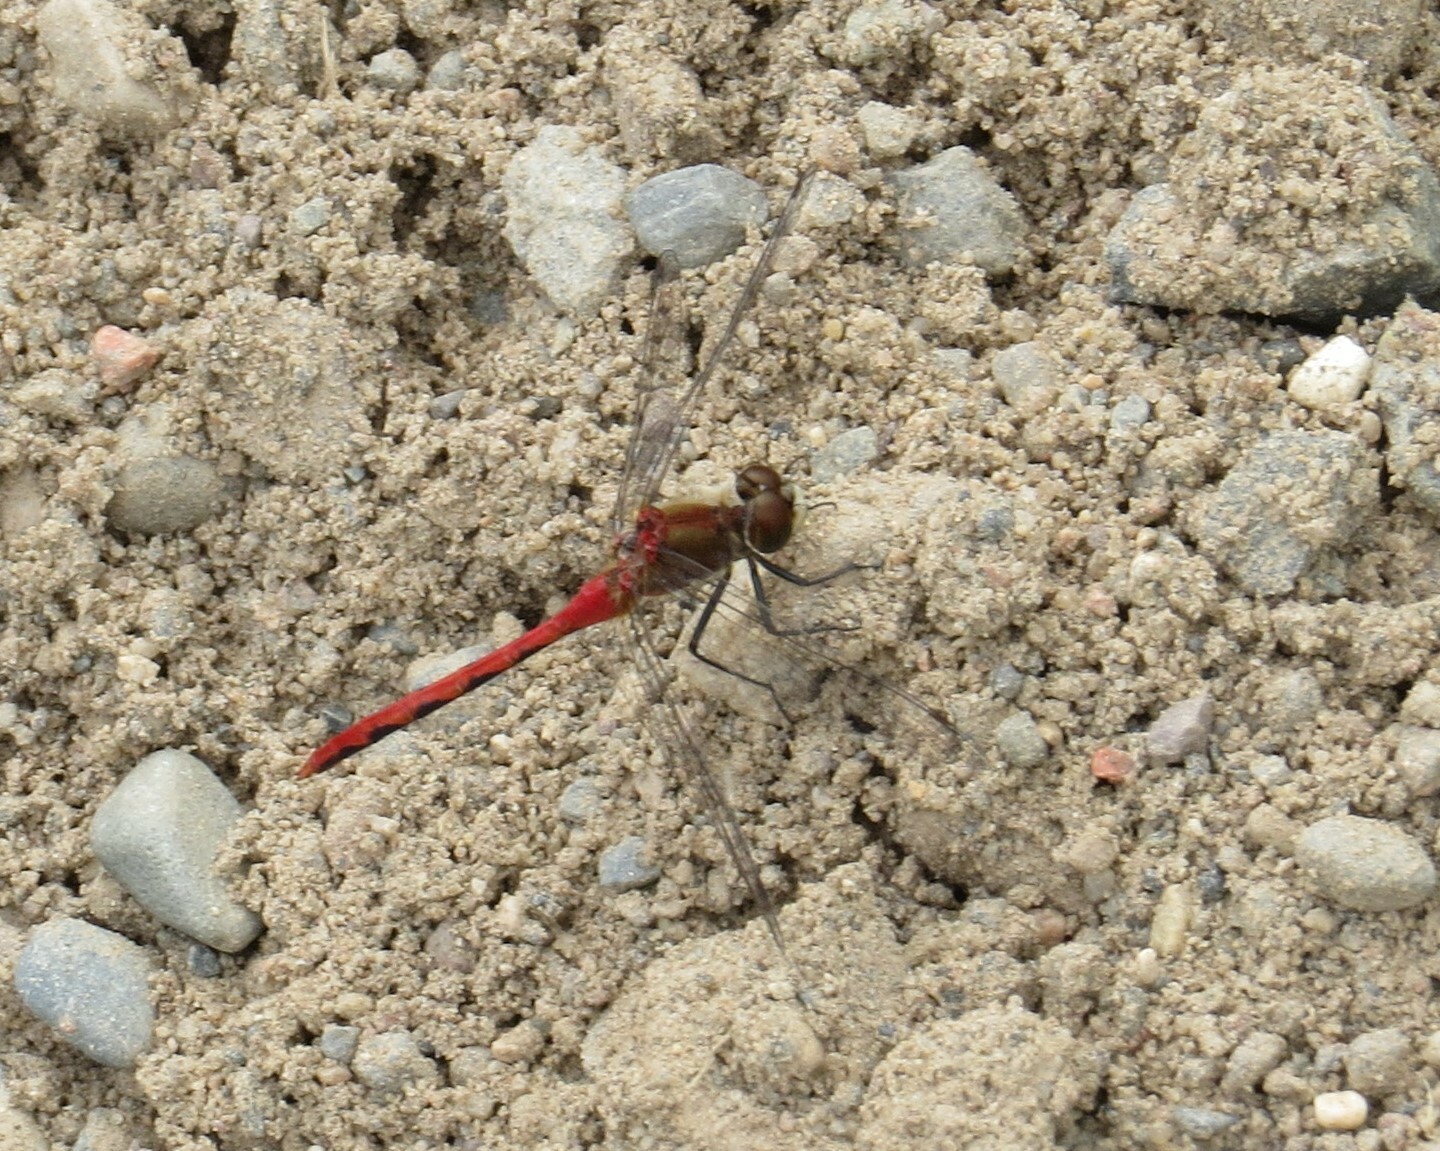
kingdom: Animalia
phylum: Arthropoda
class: Insecta
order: Odonata
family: Libellulidae
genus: Sympetrum
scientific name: Sympetrum obtrusum
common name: White-faced meadowhawk
